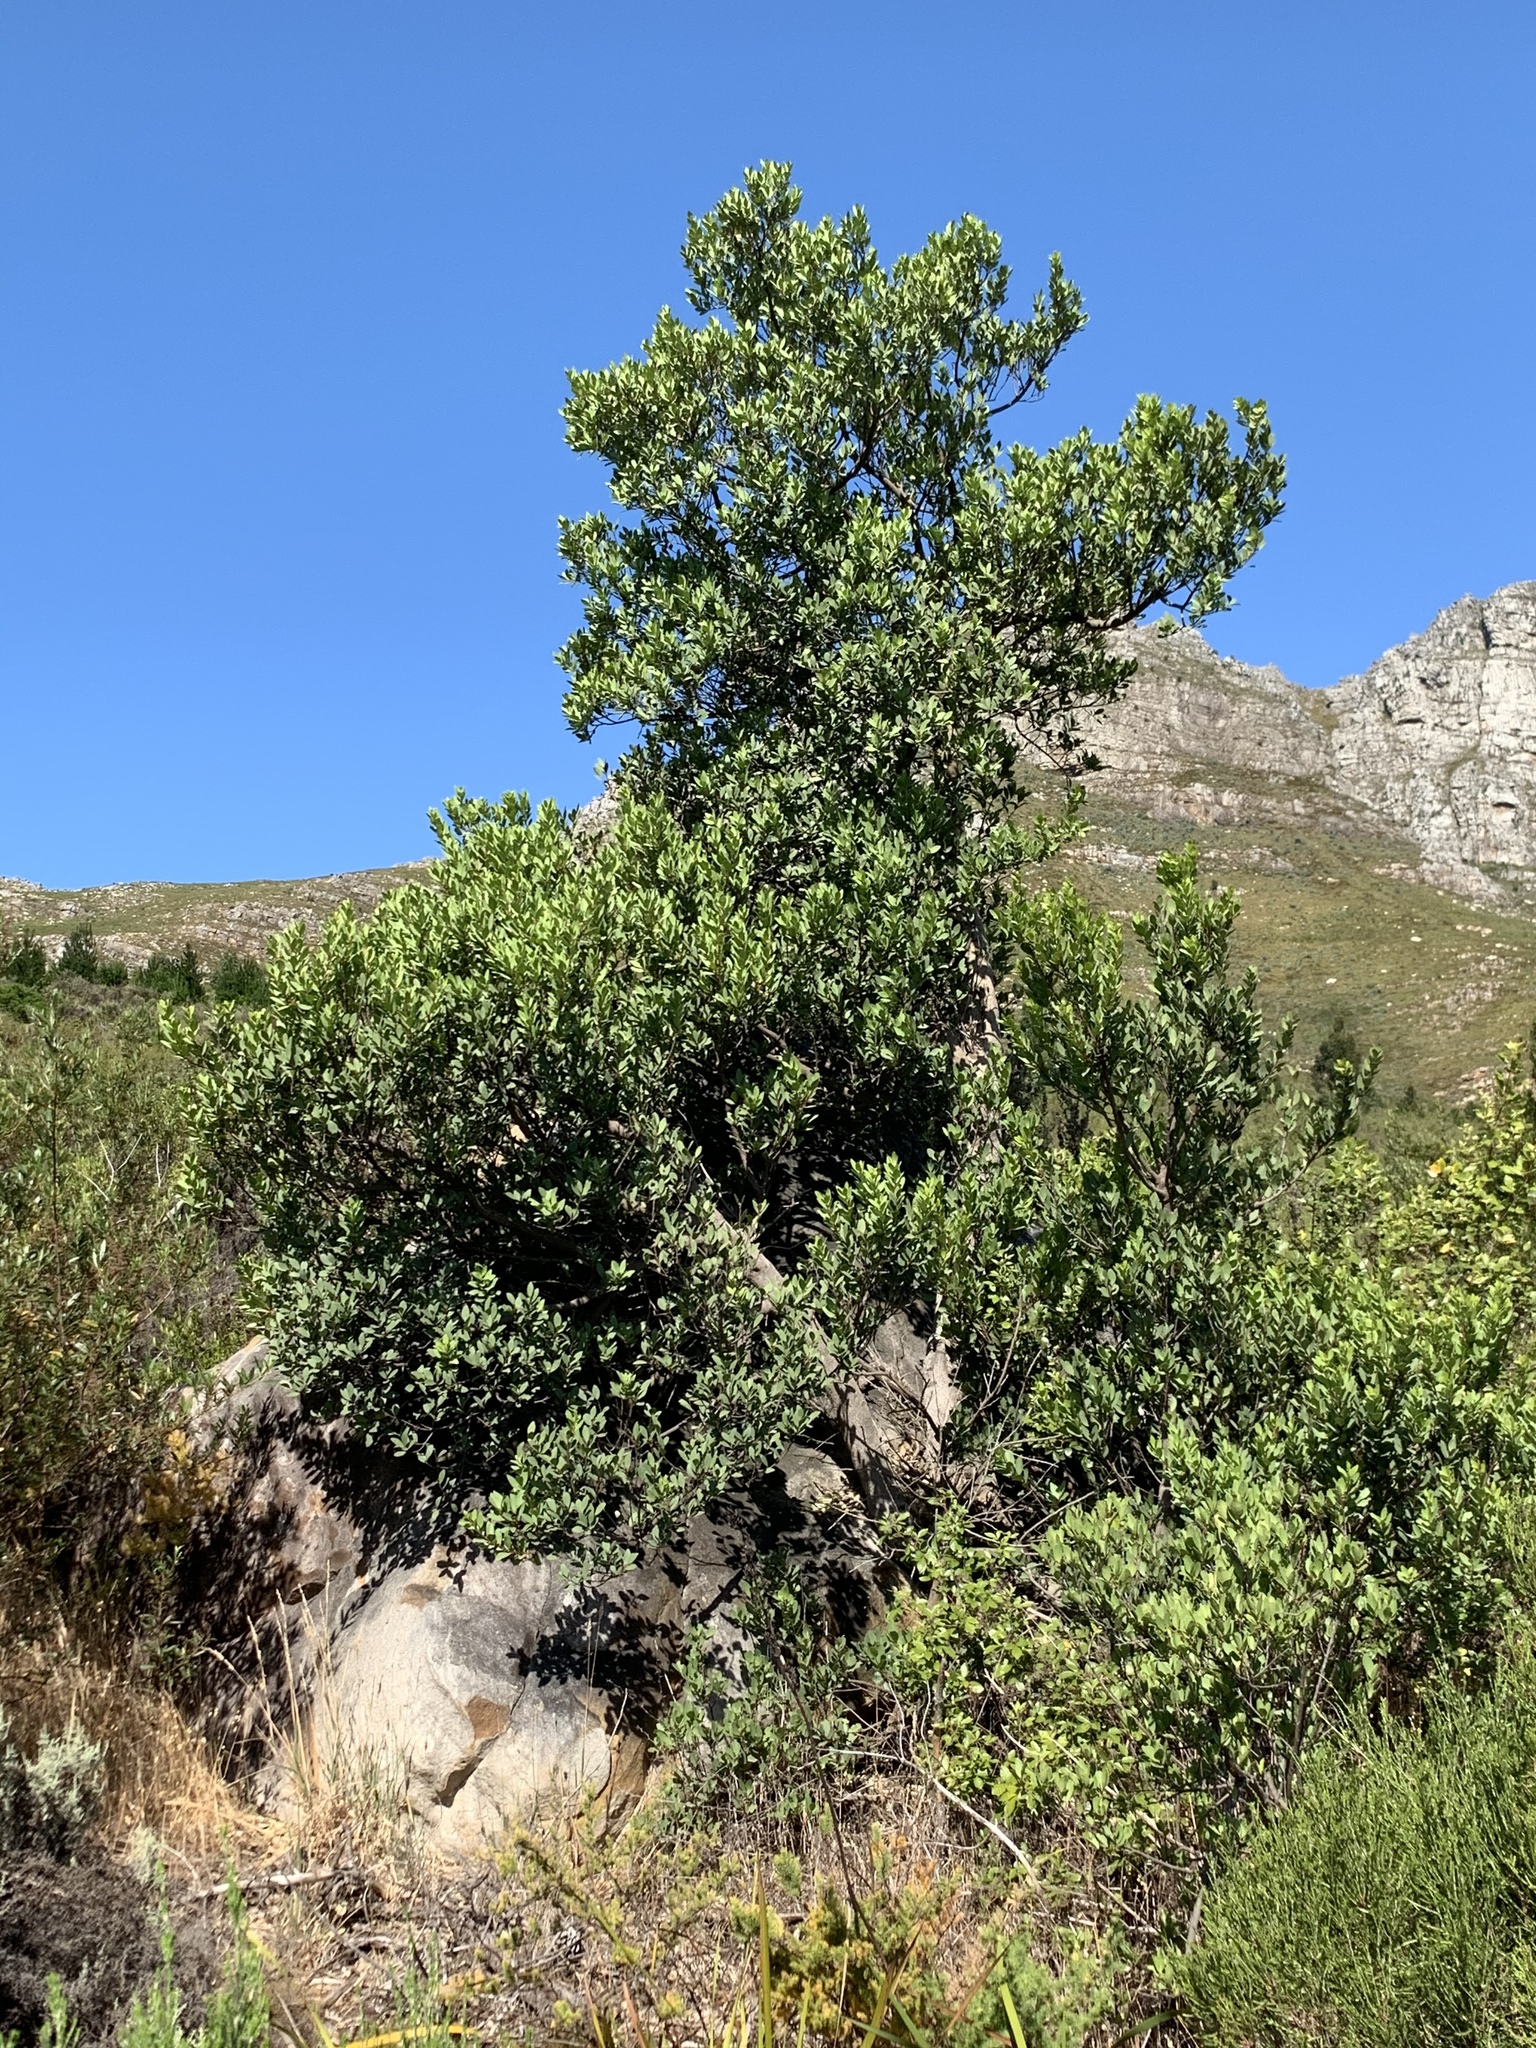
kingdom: Plantae
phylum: Tracheophyta
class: Magnoliopsida
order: Celastrales
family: Celastraceae
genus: Gymnosporia
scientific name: Gymnosporia laurina
